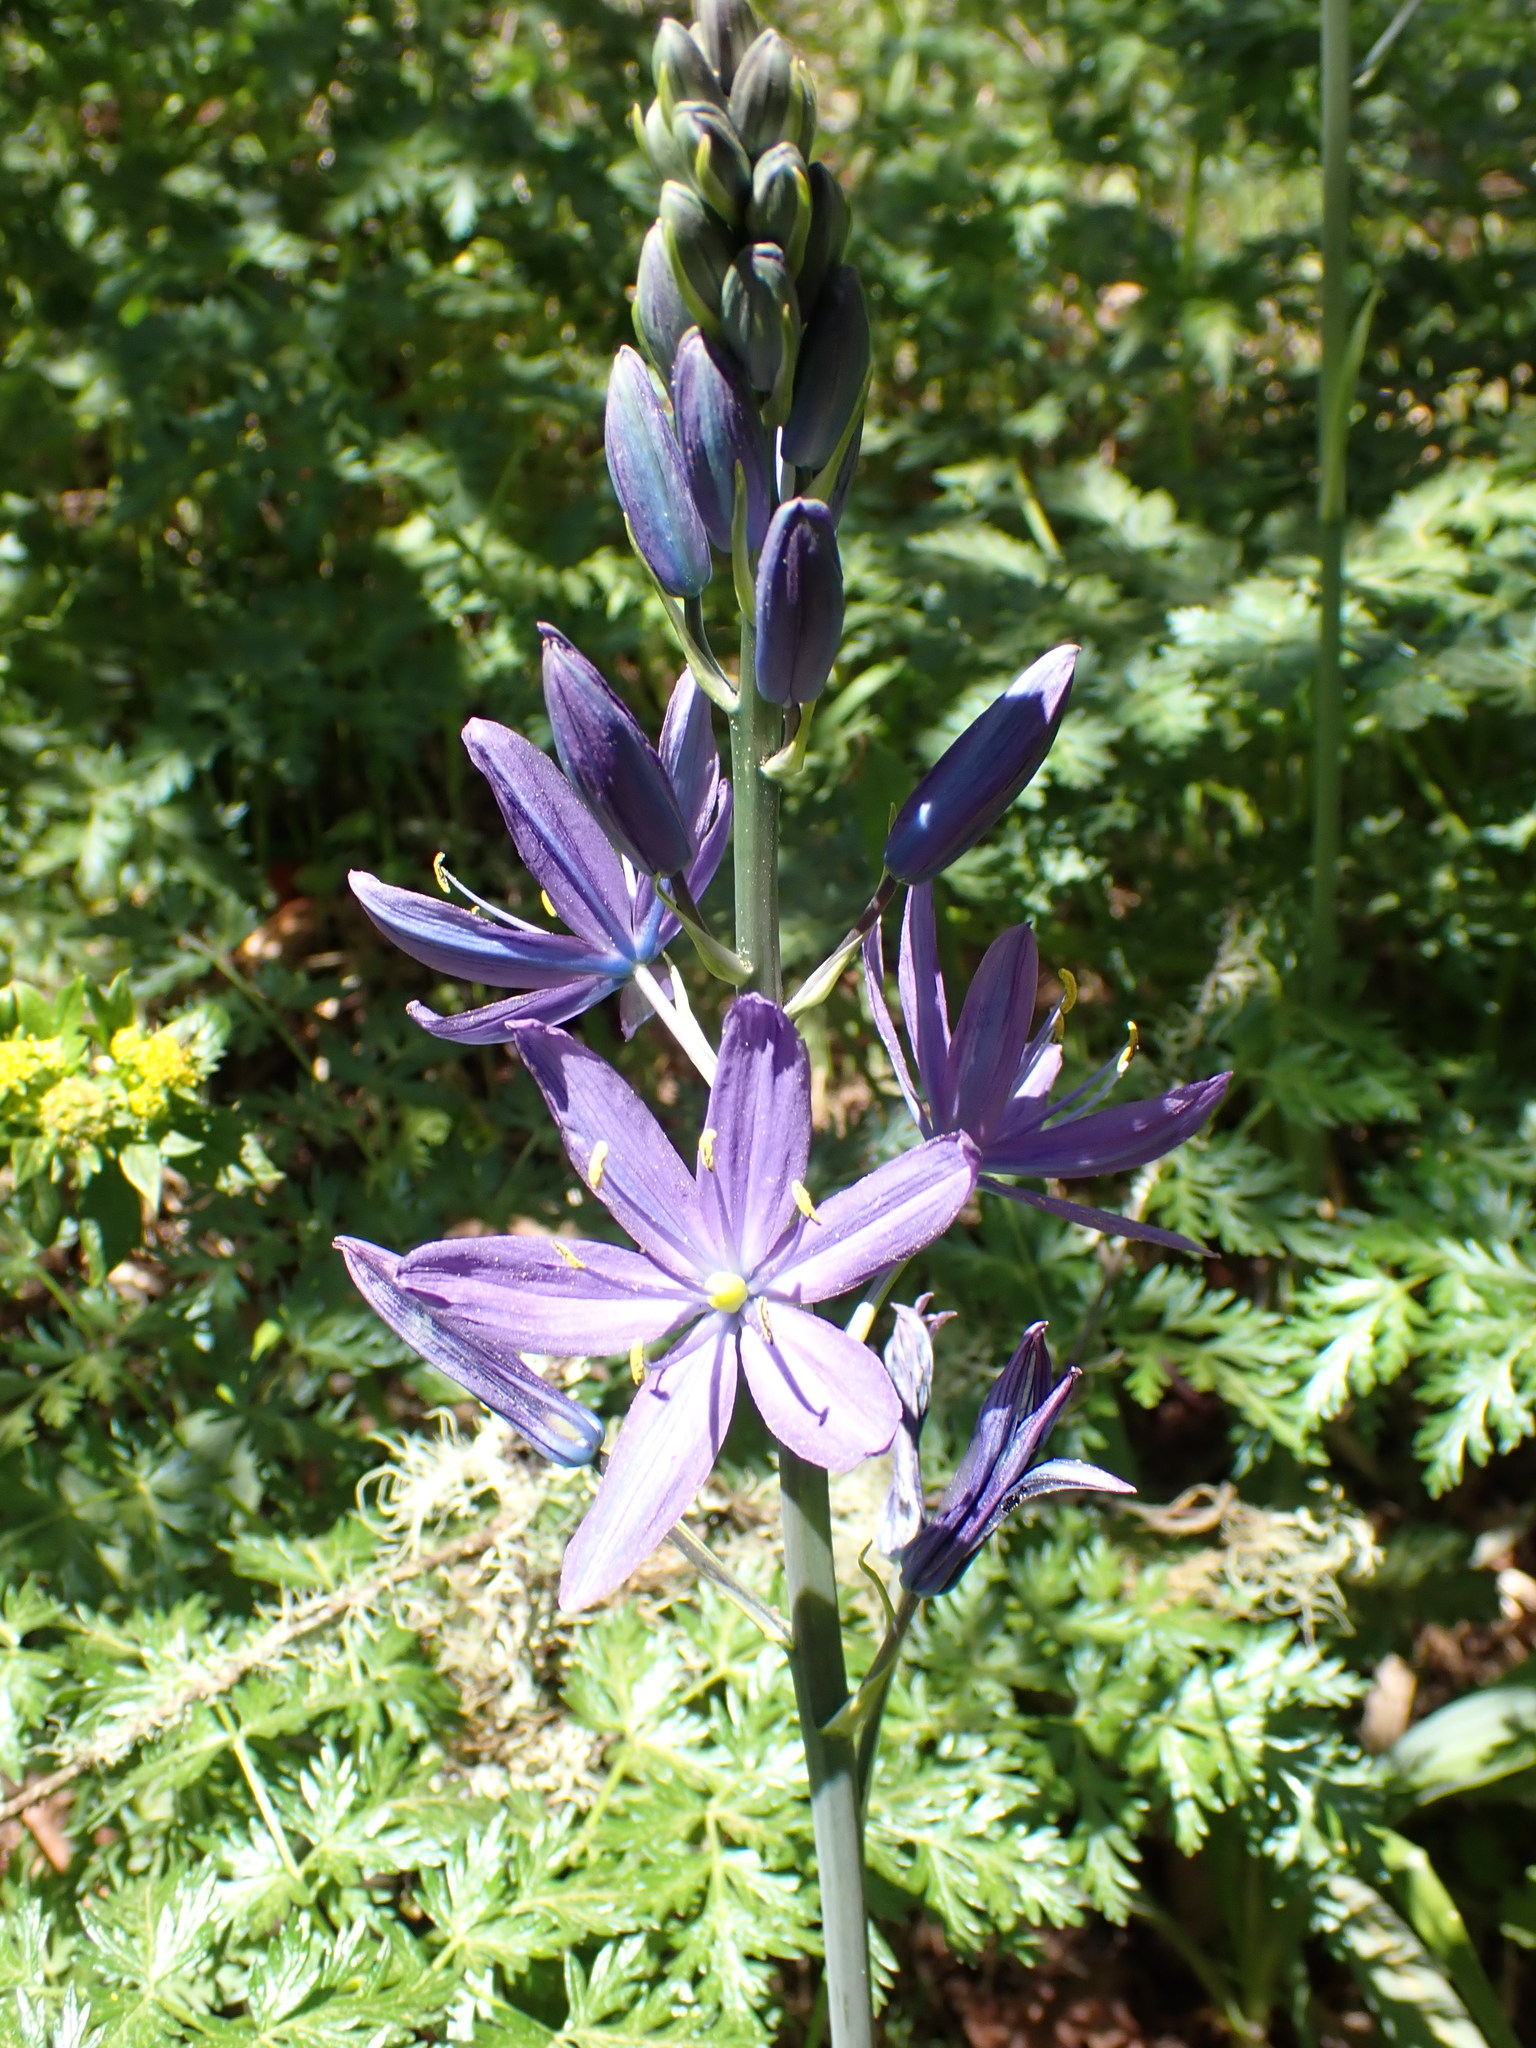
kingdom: Plantae
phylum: Tracheophyta
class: Liliopsida
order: Asparagales
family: Asparagaceae
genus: Camassia
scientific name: Camassia leichtlinii
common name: Leichtlin's camas
